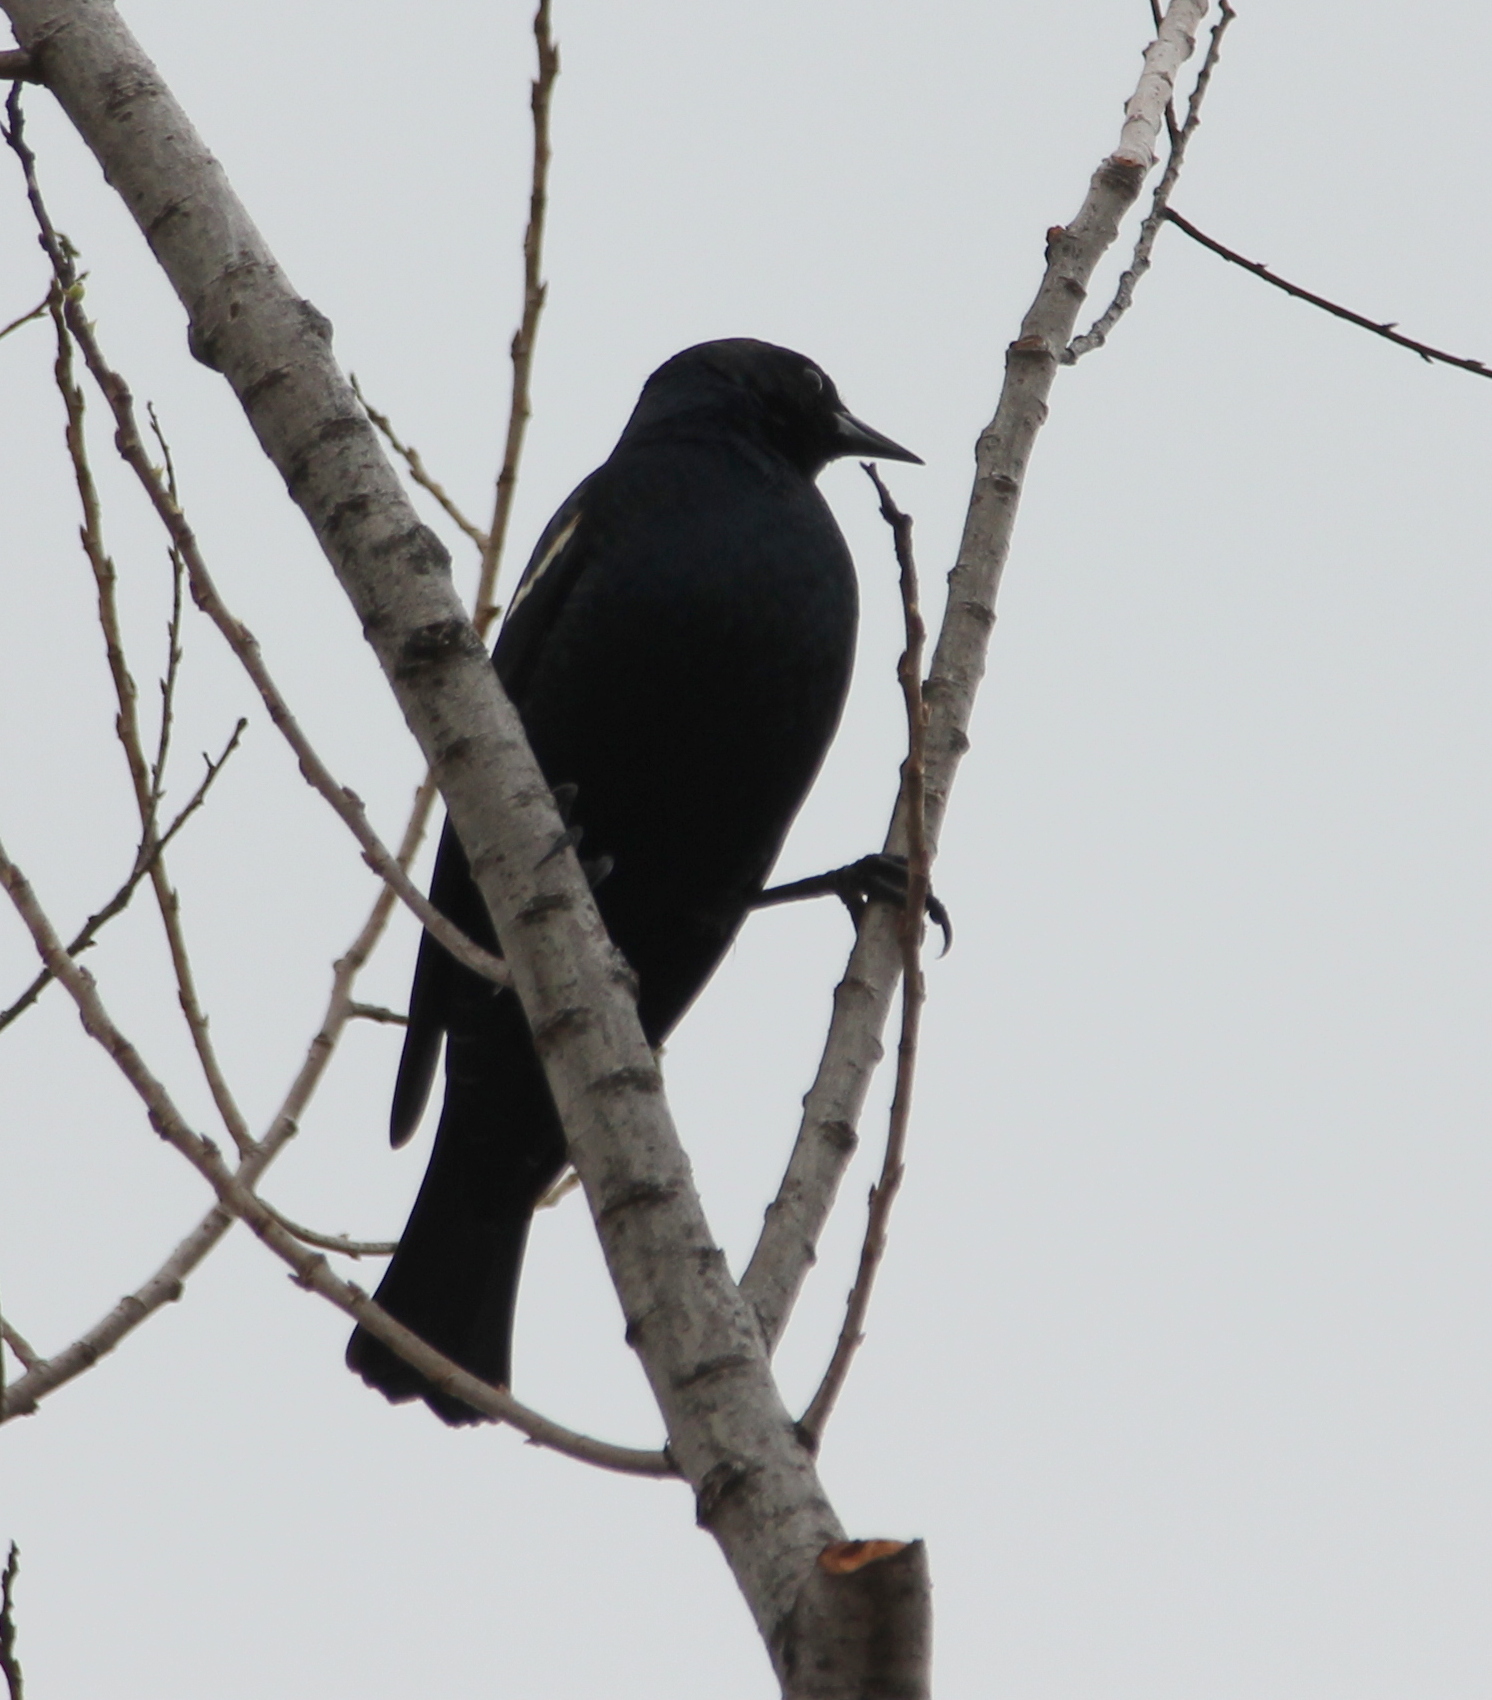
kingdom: Animalia
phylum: Chordata
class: Aves
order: Passeriformes
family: Icteridae
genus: Agelaius
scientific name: Agelaius tricolor
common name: Tricolored blackbird
